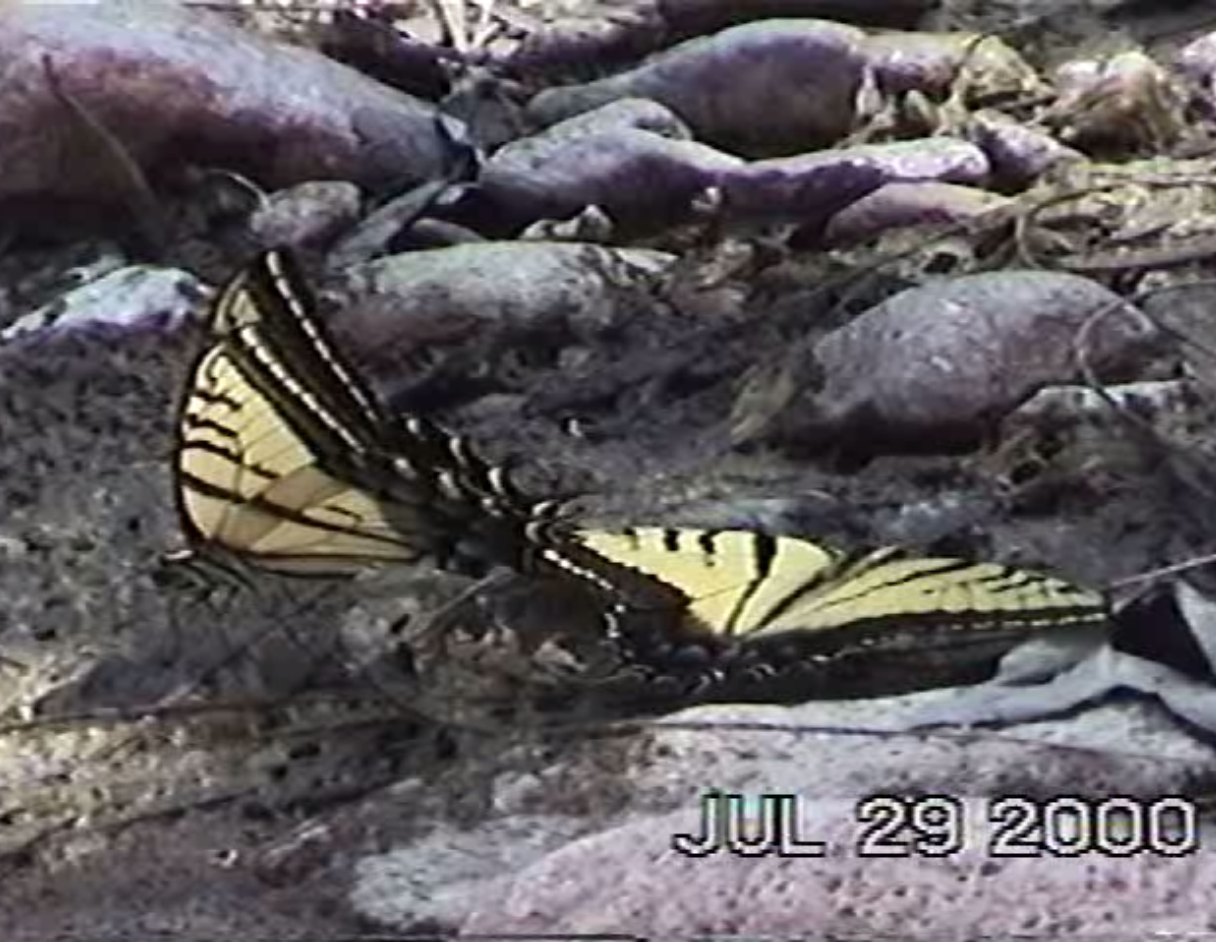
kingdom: Animalia
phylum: Arthropoda
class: Insecta
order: Lepidoptera
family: Papilionidae
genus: Papilio
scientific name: Papilio multicaudata
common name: Two-tailed tiger swallowtail
